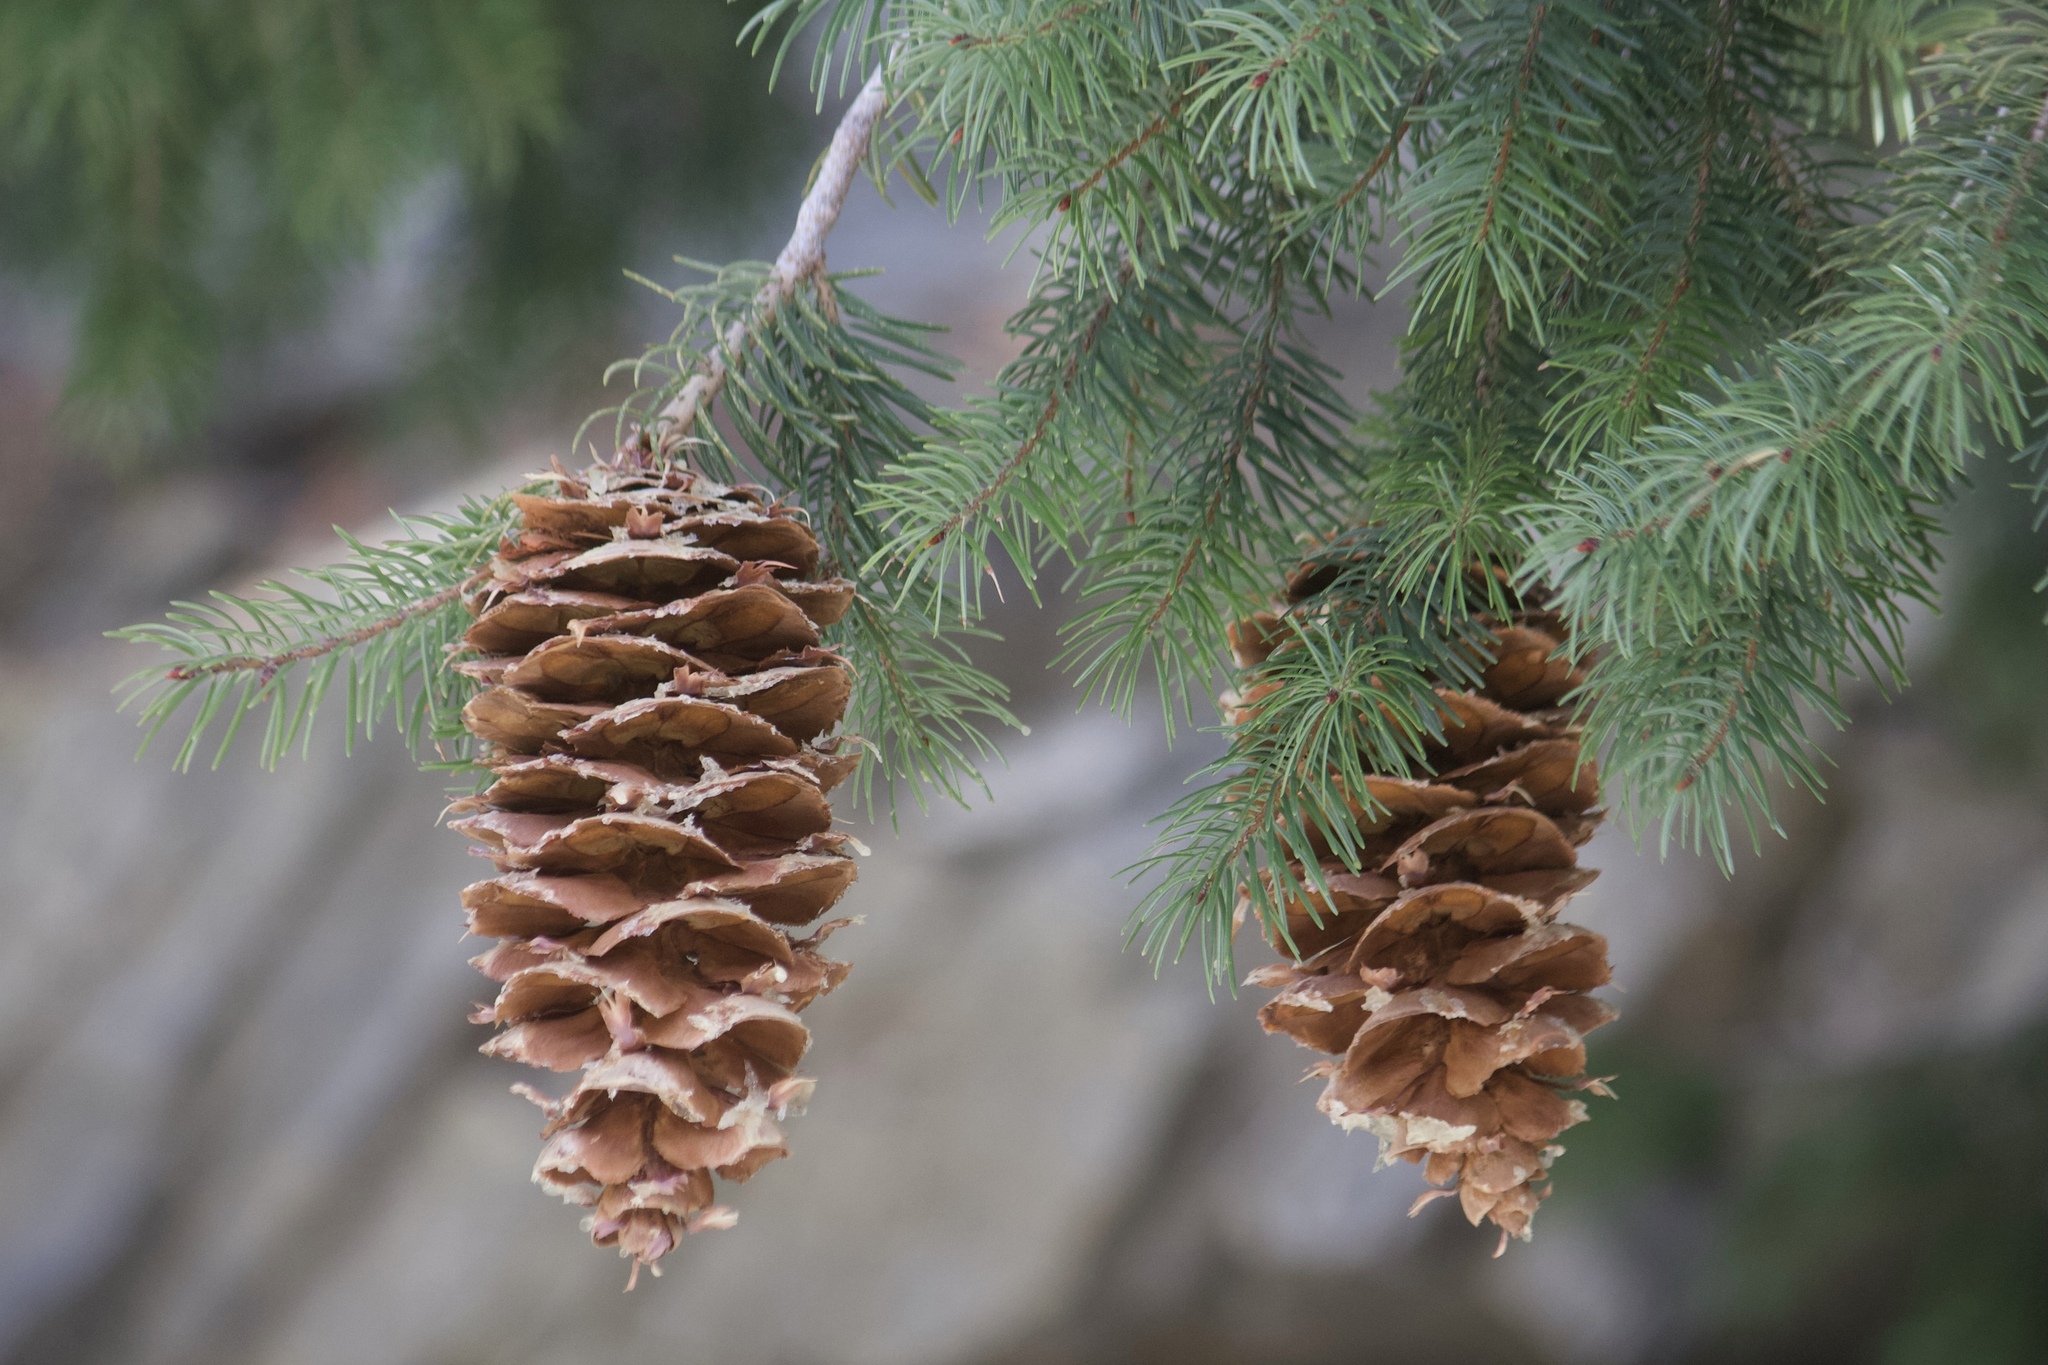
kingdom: Plantae
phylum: Tracheophyta
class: Pinopsida
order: Pinales
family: Pinaceae
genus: Pseudotsuga
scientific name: Pseudotsuga macrocarpa
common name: Big-cone douglas-fir
